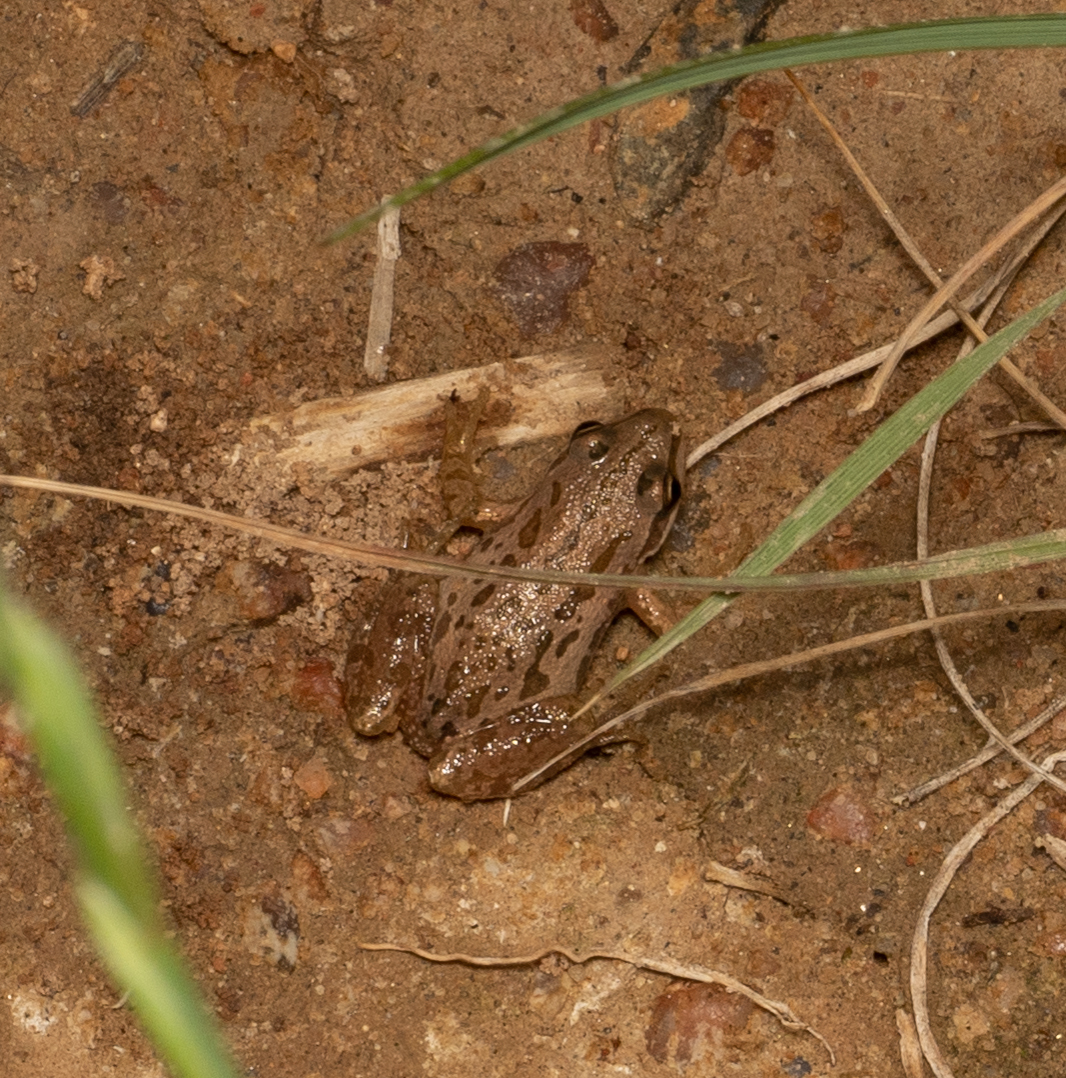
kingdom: Animalia
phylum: Chordata
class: Amphibia
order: Anura
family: Hylidae
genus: Pseudacris
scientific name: Pseudacris maculata
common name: Boreal chorus frog
